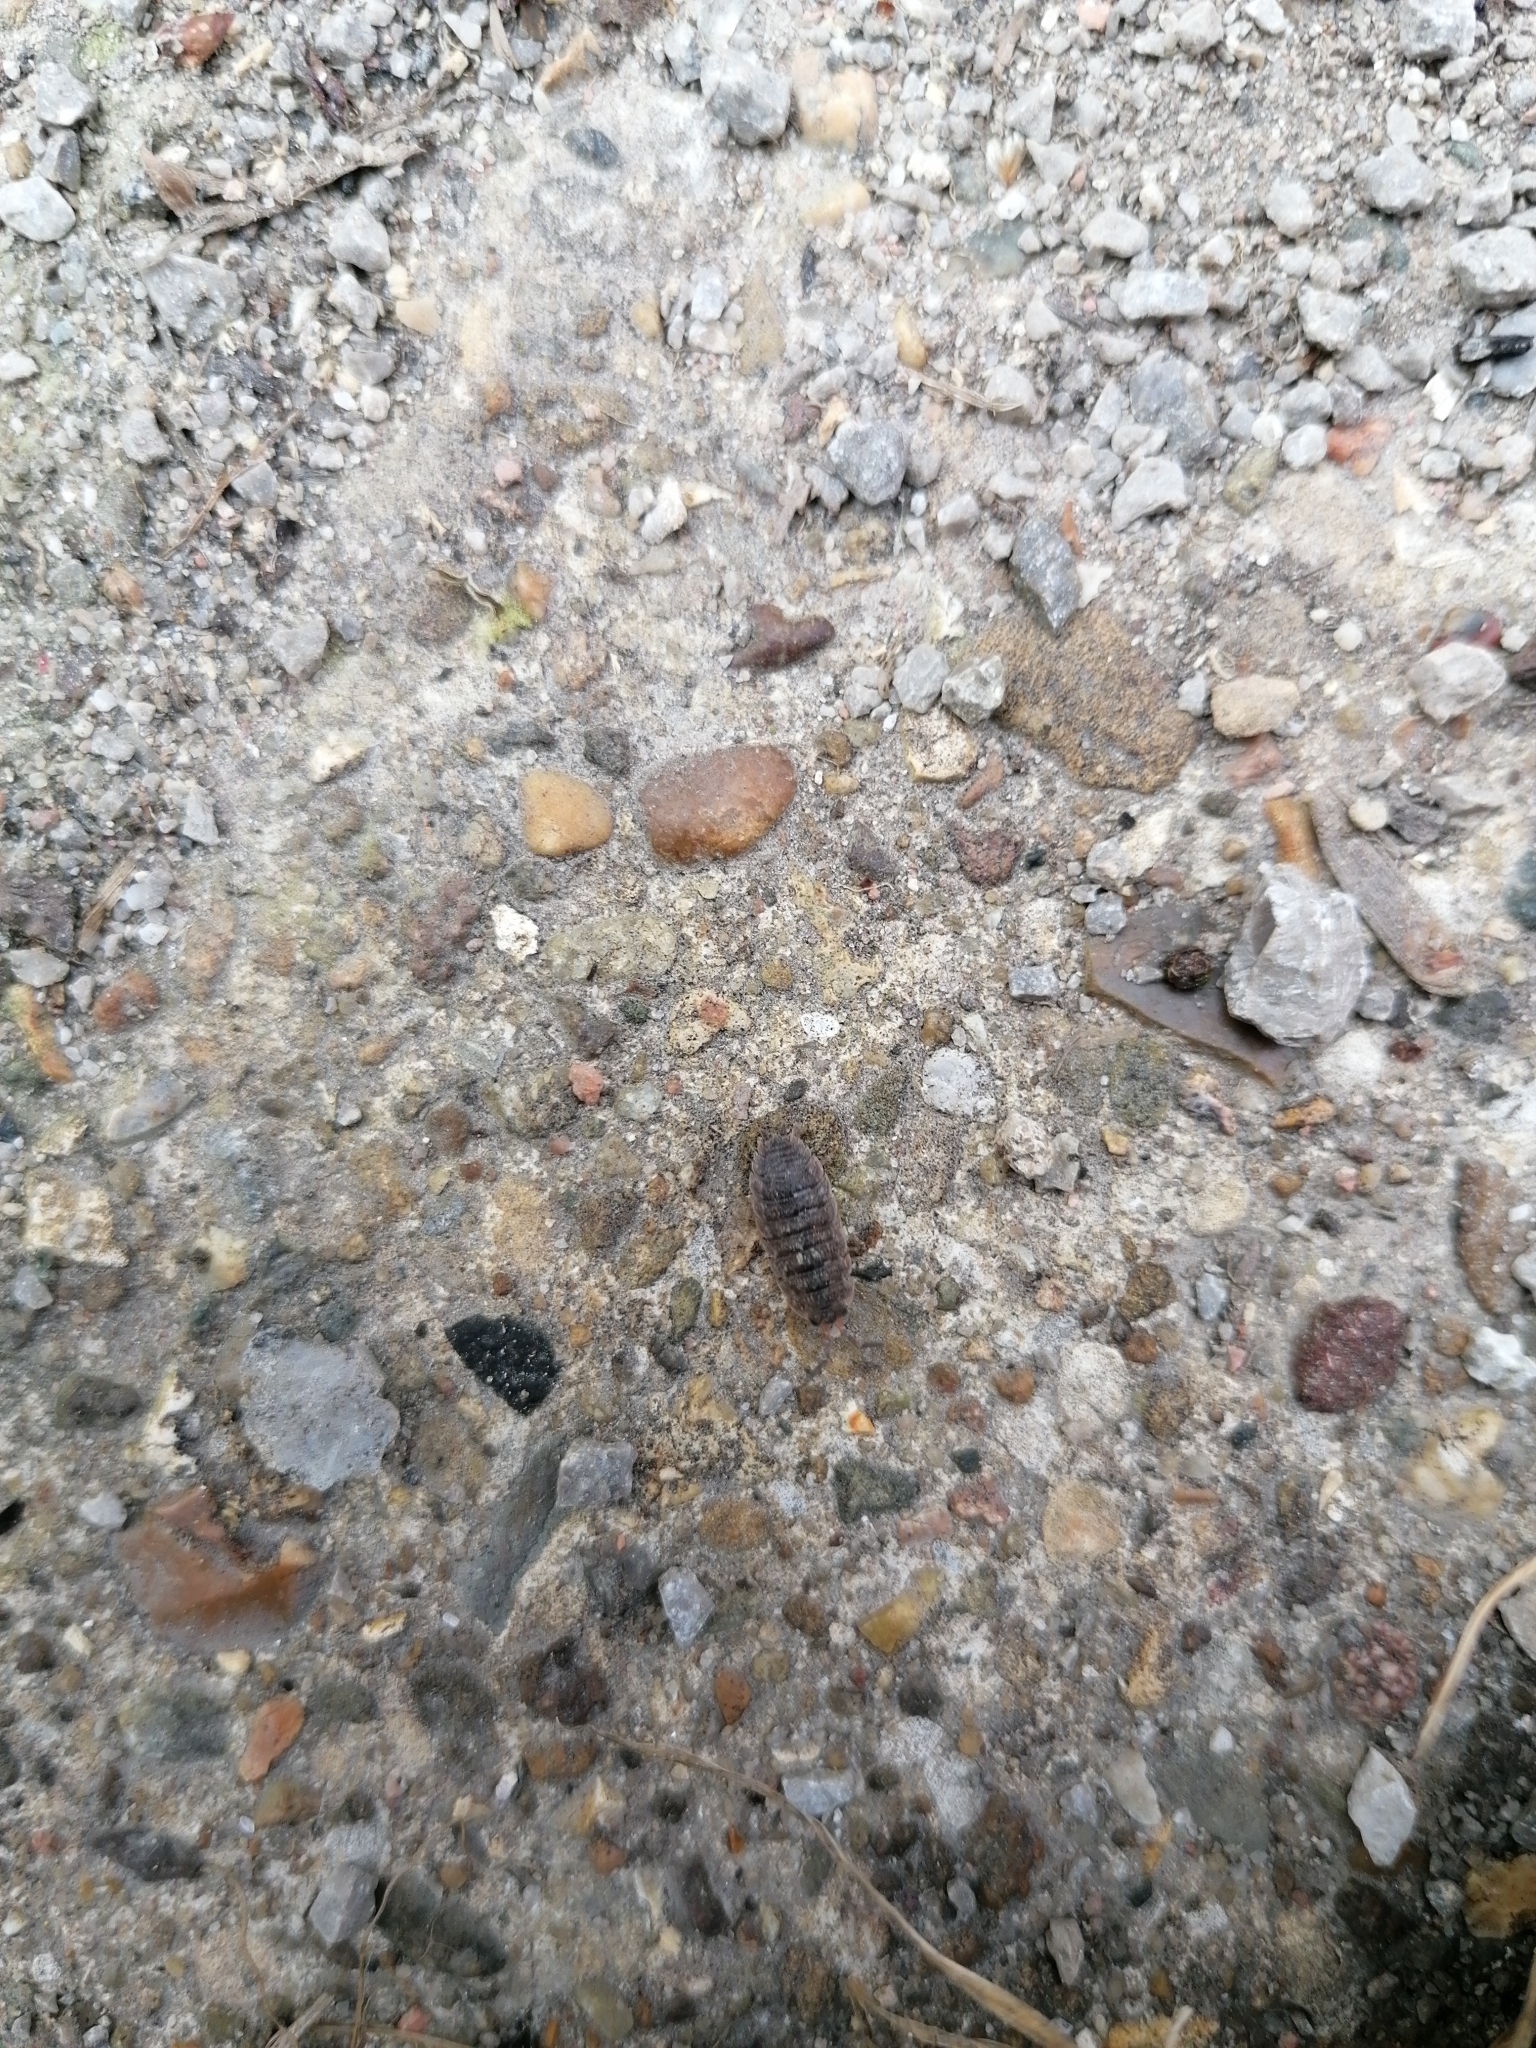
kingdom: Animalia
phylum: Arthropoda
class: Malacostraca
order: Isopoda
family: Porcellionidae
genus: Porcellio
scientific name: Porcellio scaber
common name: Common rough woodlouse
